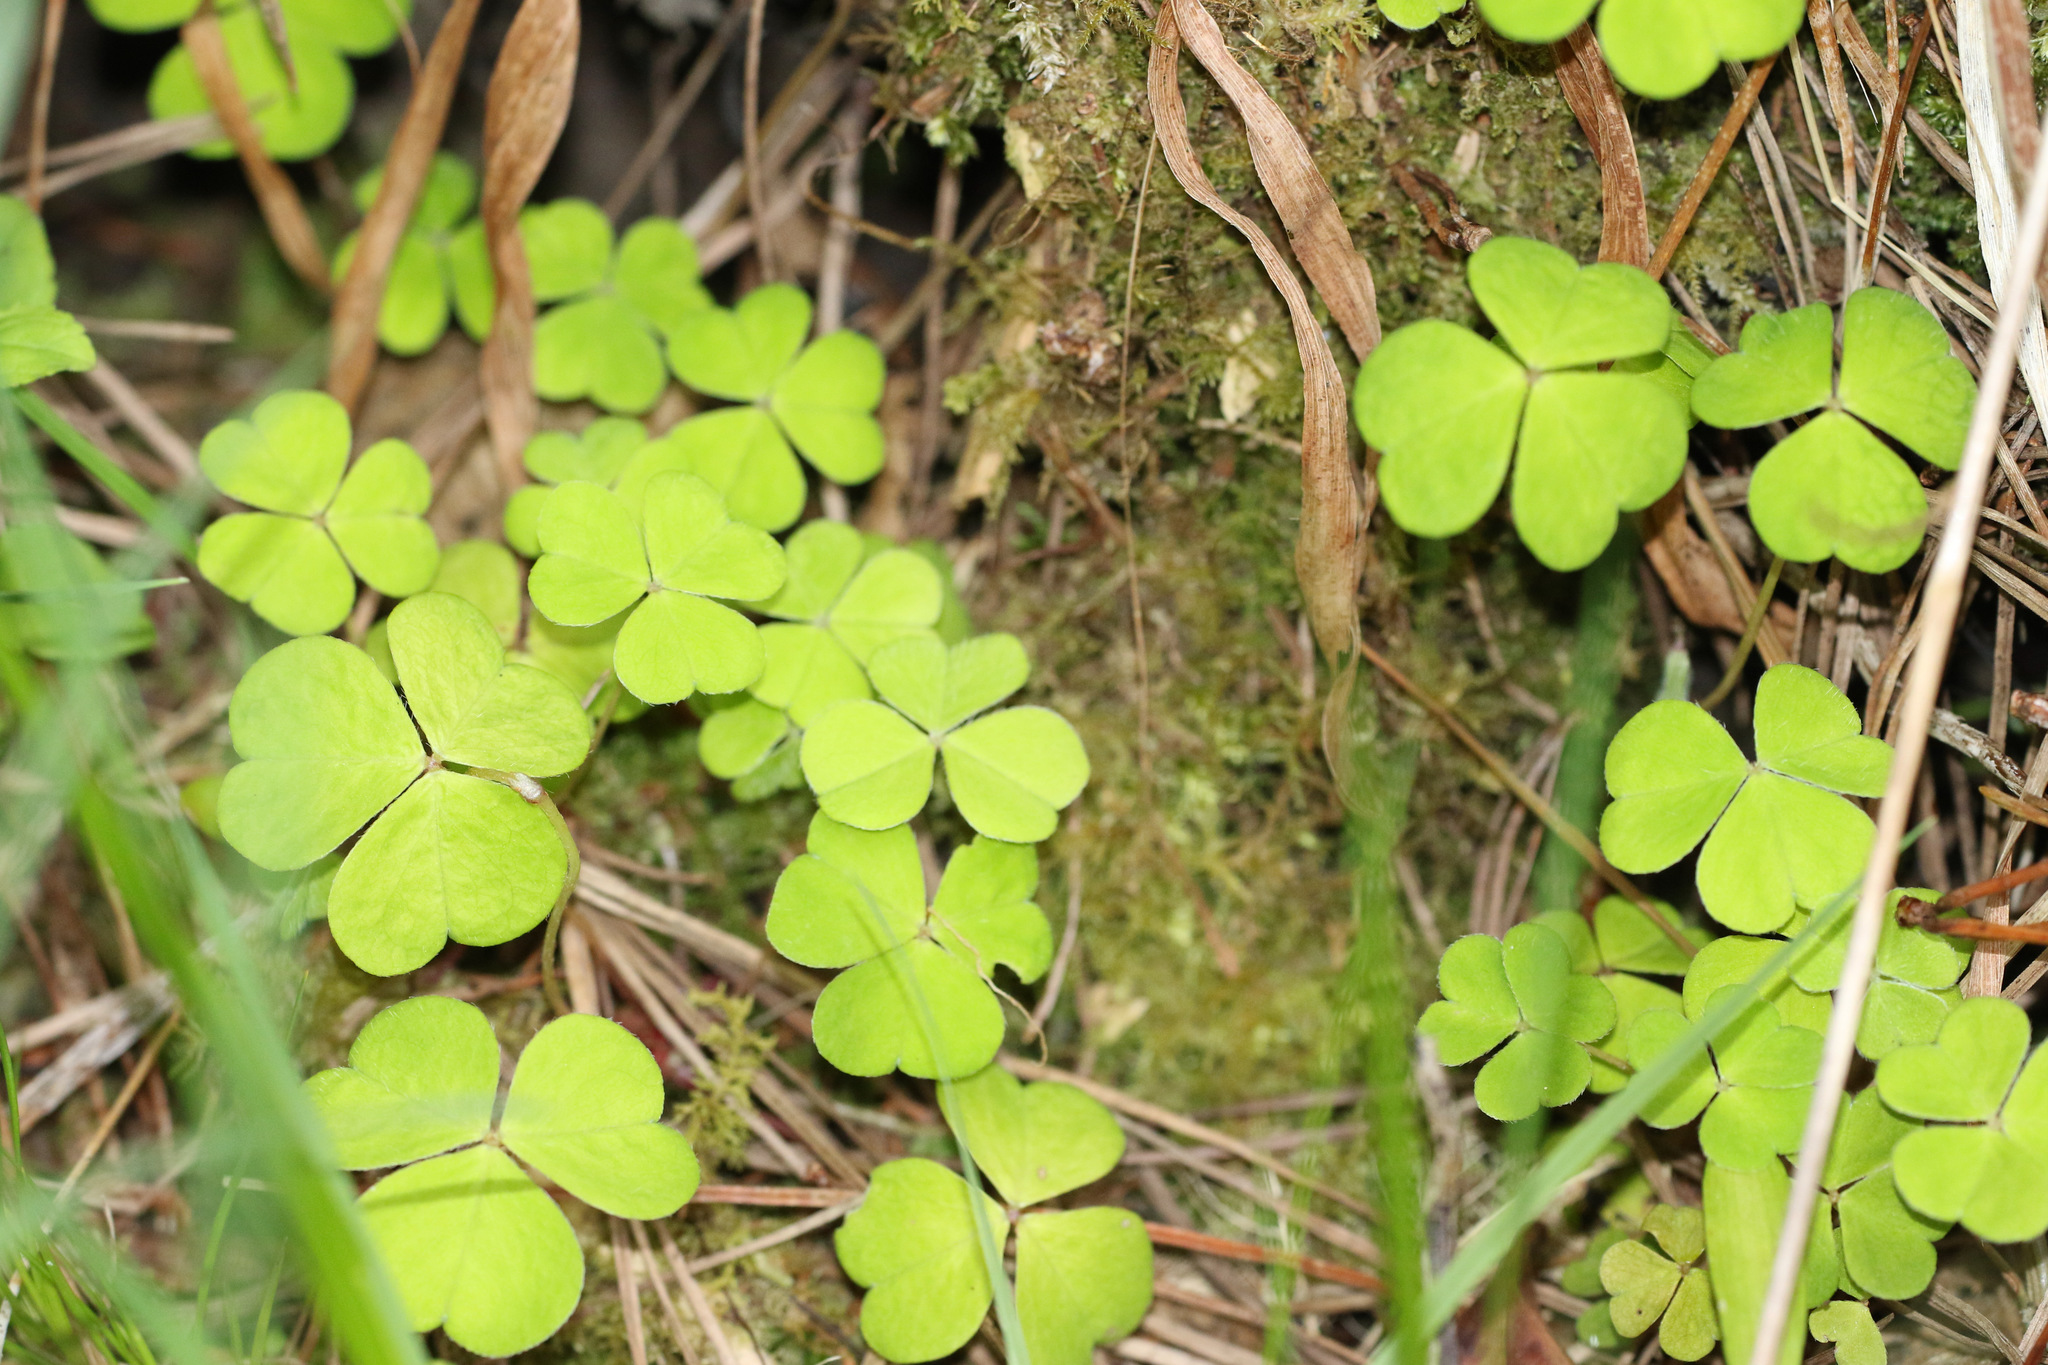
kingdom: Plantae
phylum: Tracheophyta
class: Magnoliopsida
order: Oxalidales
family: Oxalidaceae
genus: Oxalis
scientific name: Oxalis acetosella
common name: Wood-sorrel
